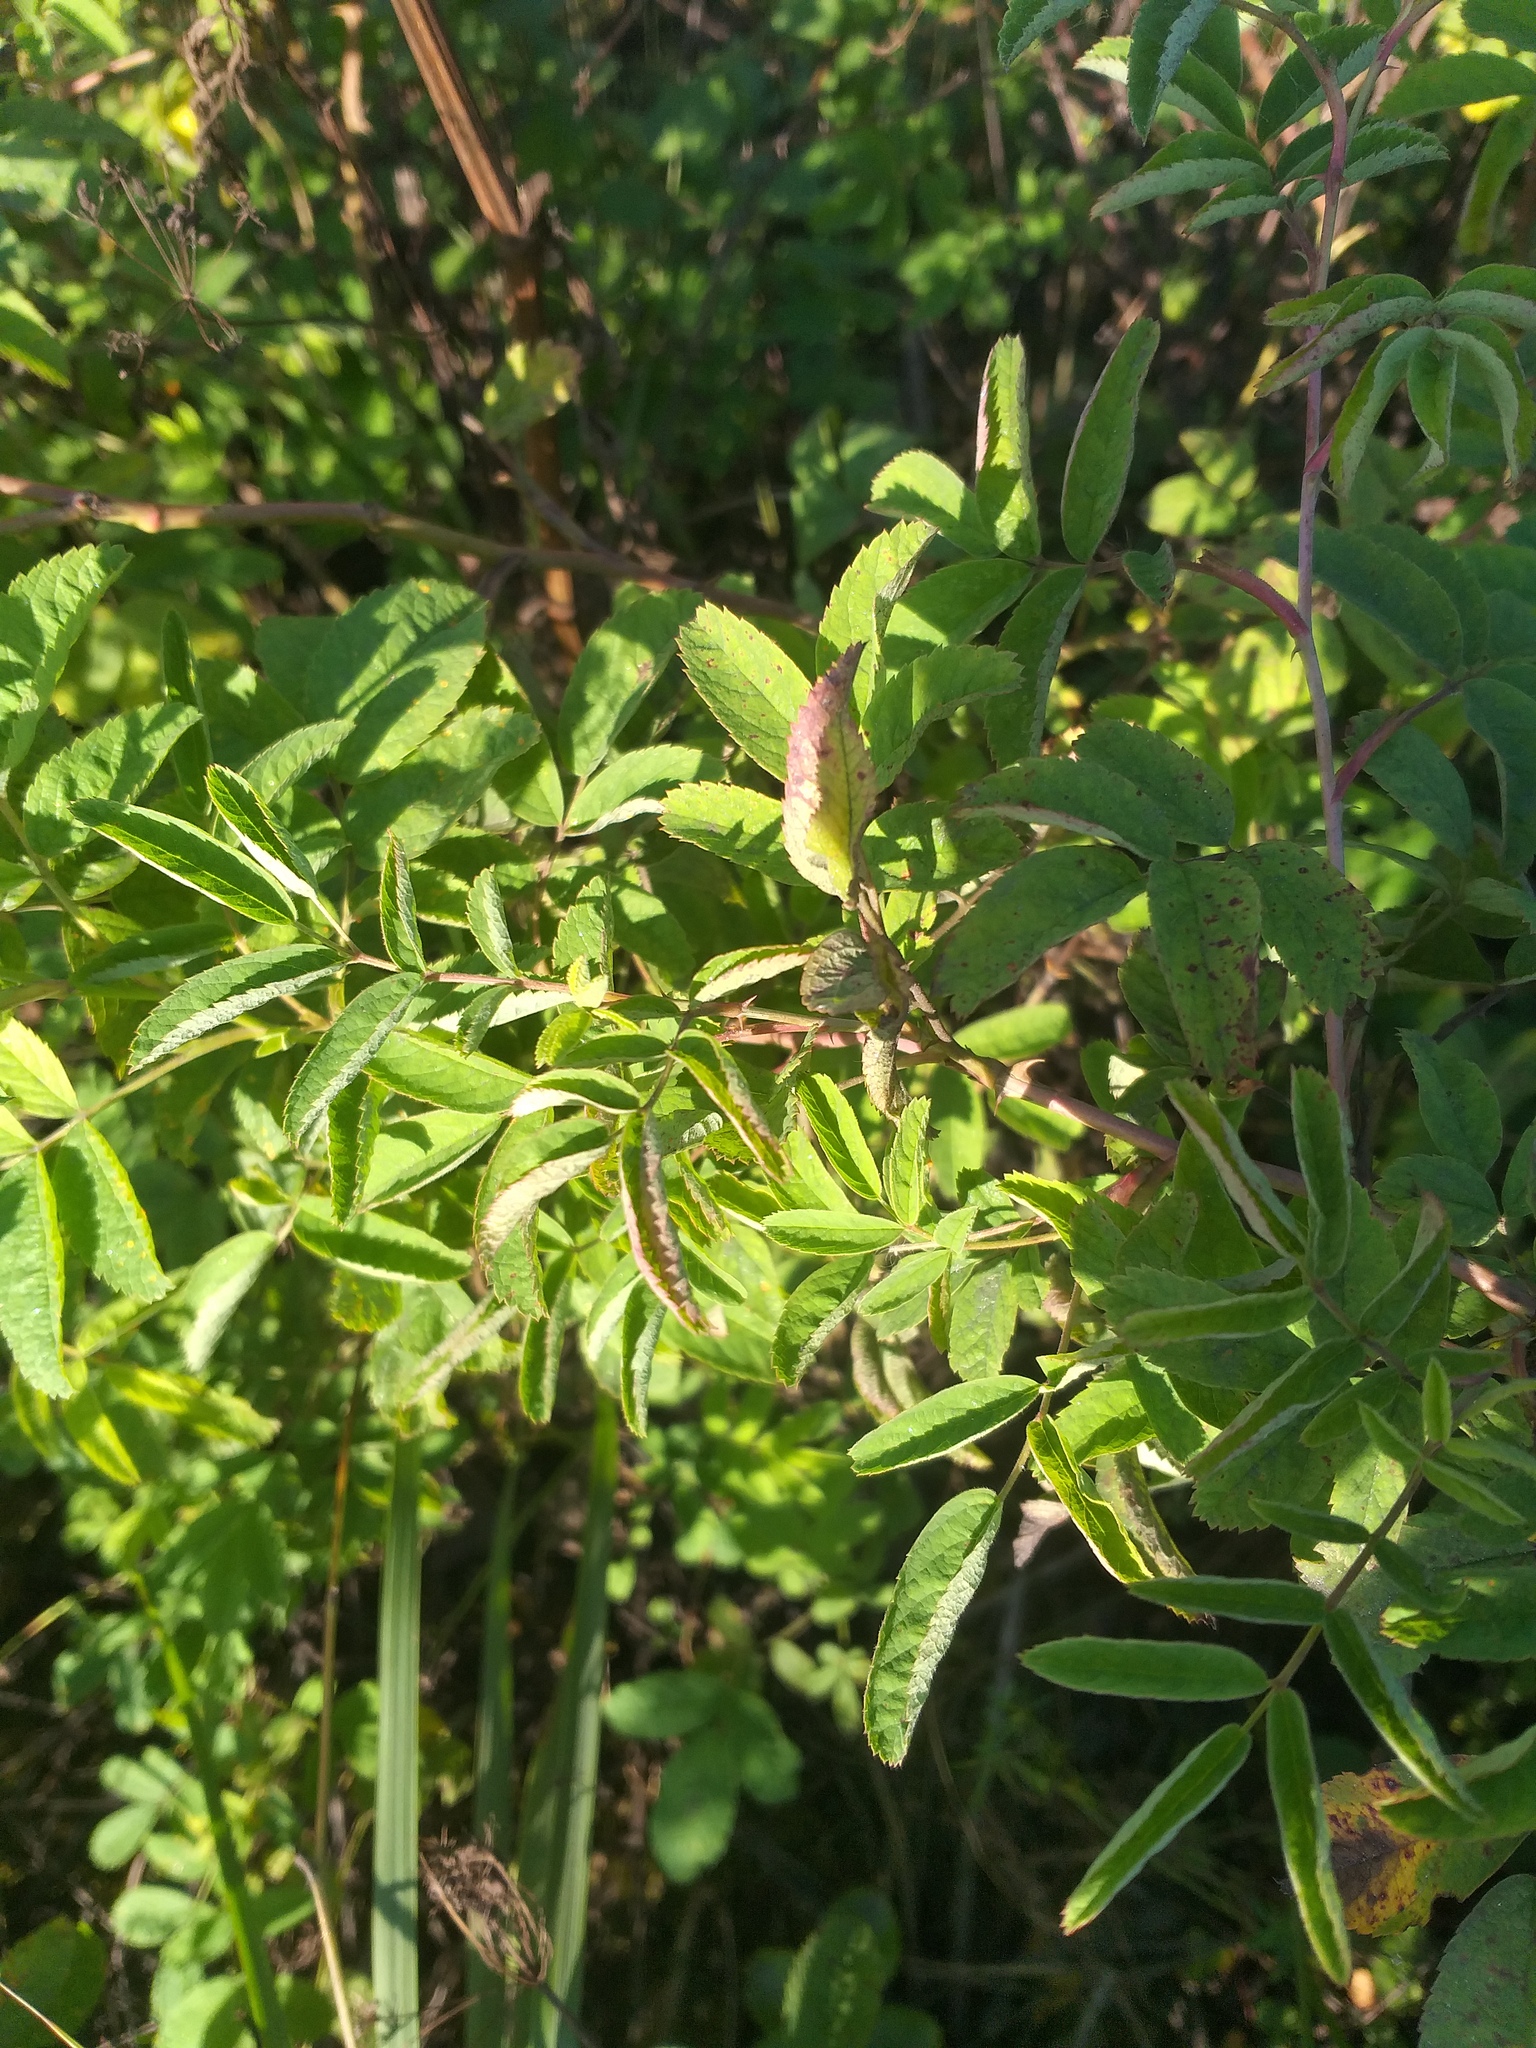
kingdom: Plantae
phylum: Tracheophyta
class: Magnoliopsida
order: Rosales
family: Rosaceae
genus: Rosa
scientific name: Rosa majalis
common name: Cinnamon rose
